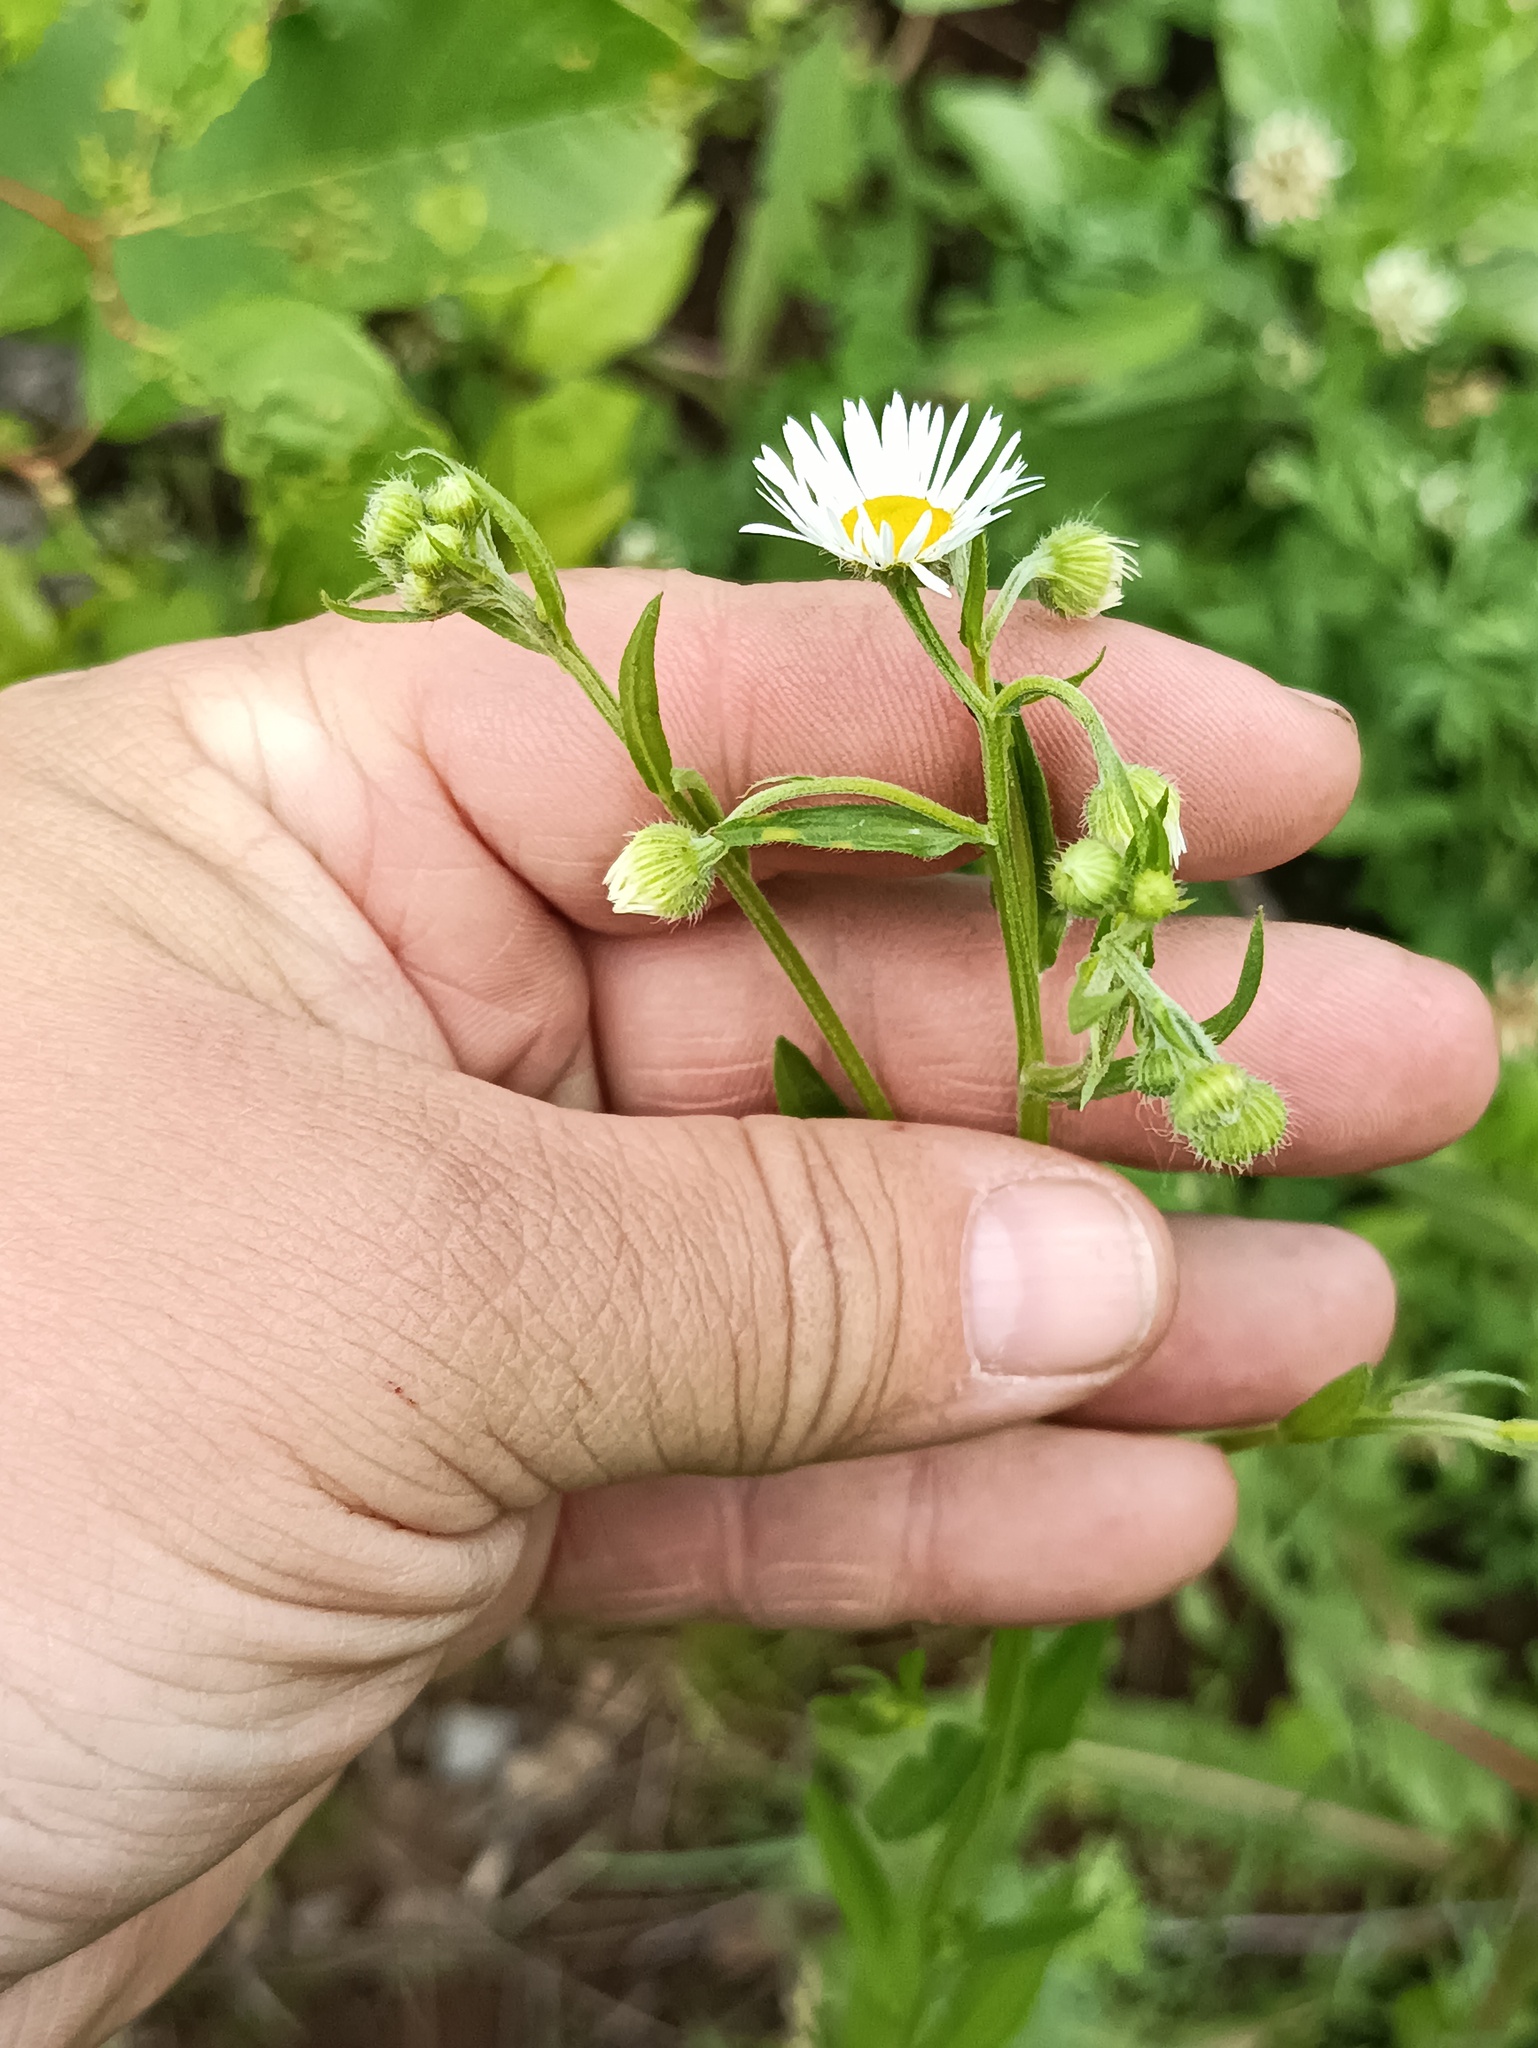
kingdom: Plantae
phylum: Tracheophyta
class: Magnoliopsida
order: Asterales
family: Asteraceae
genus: Erigeron
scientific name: Erigeron annuus
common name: Tall fleabane
